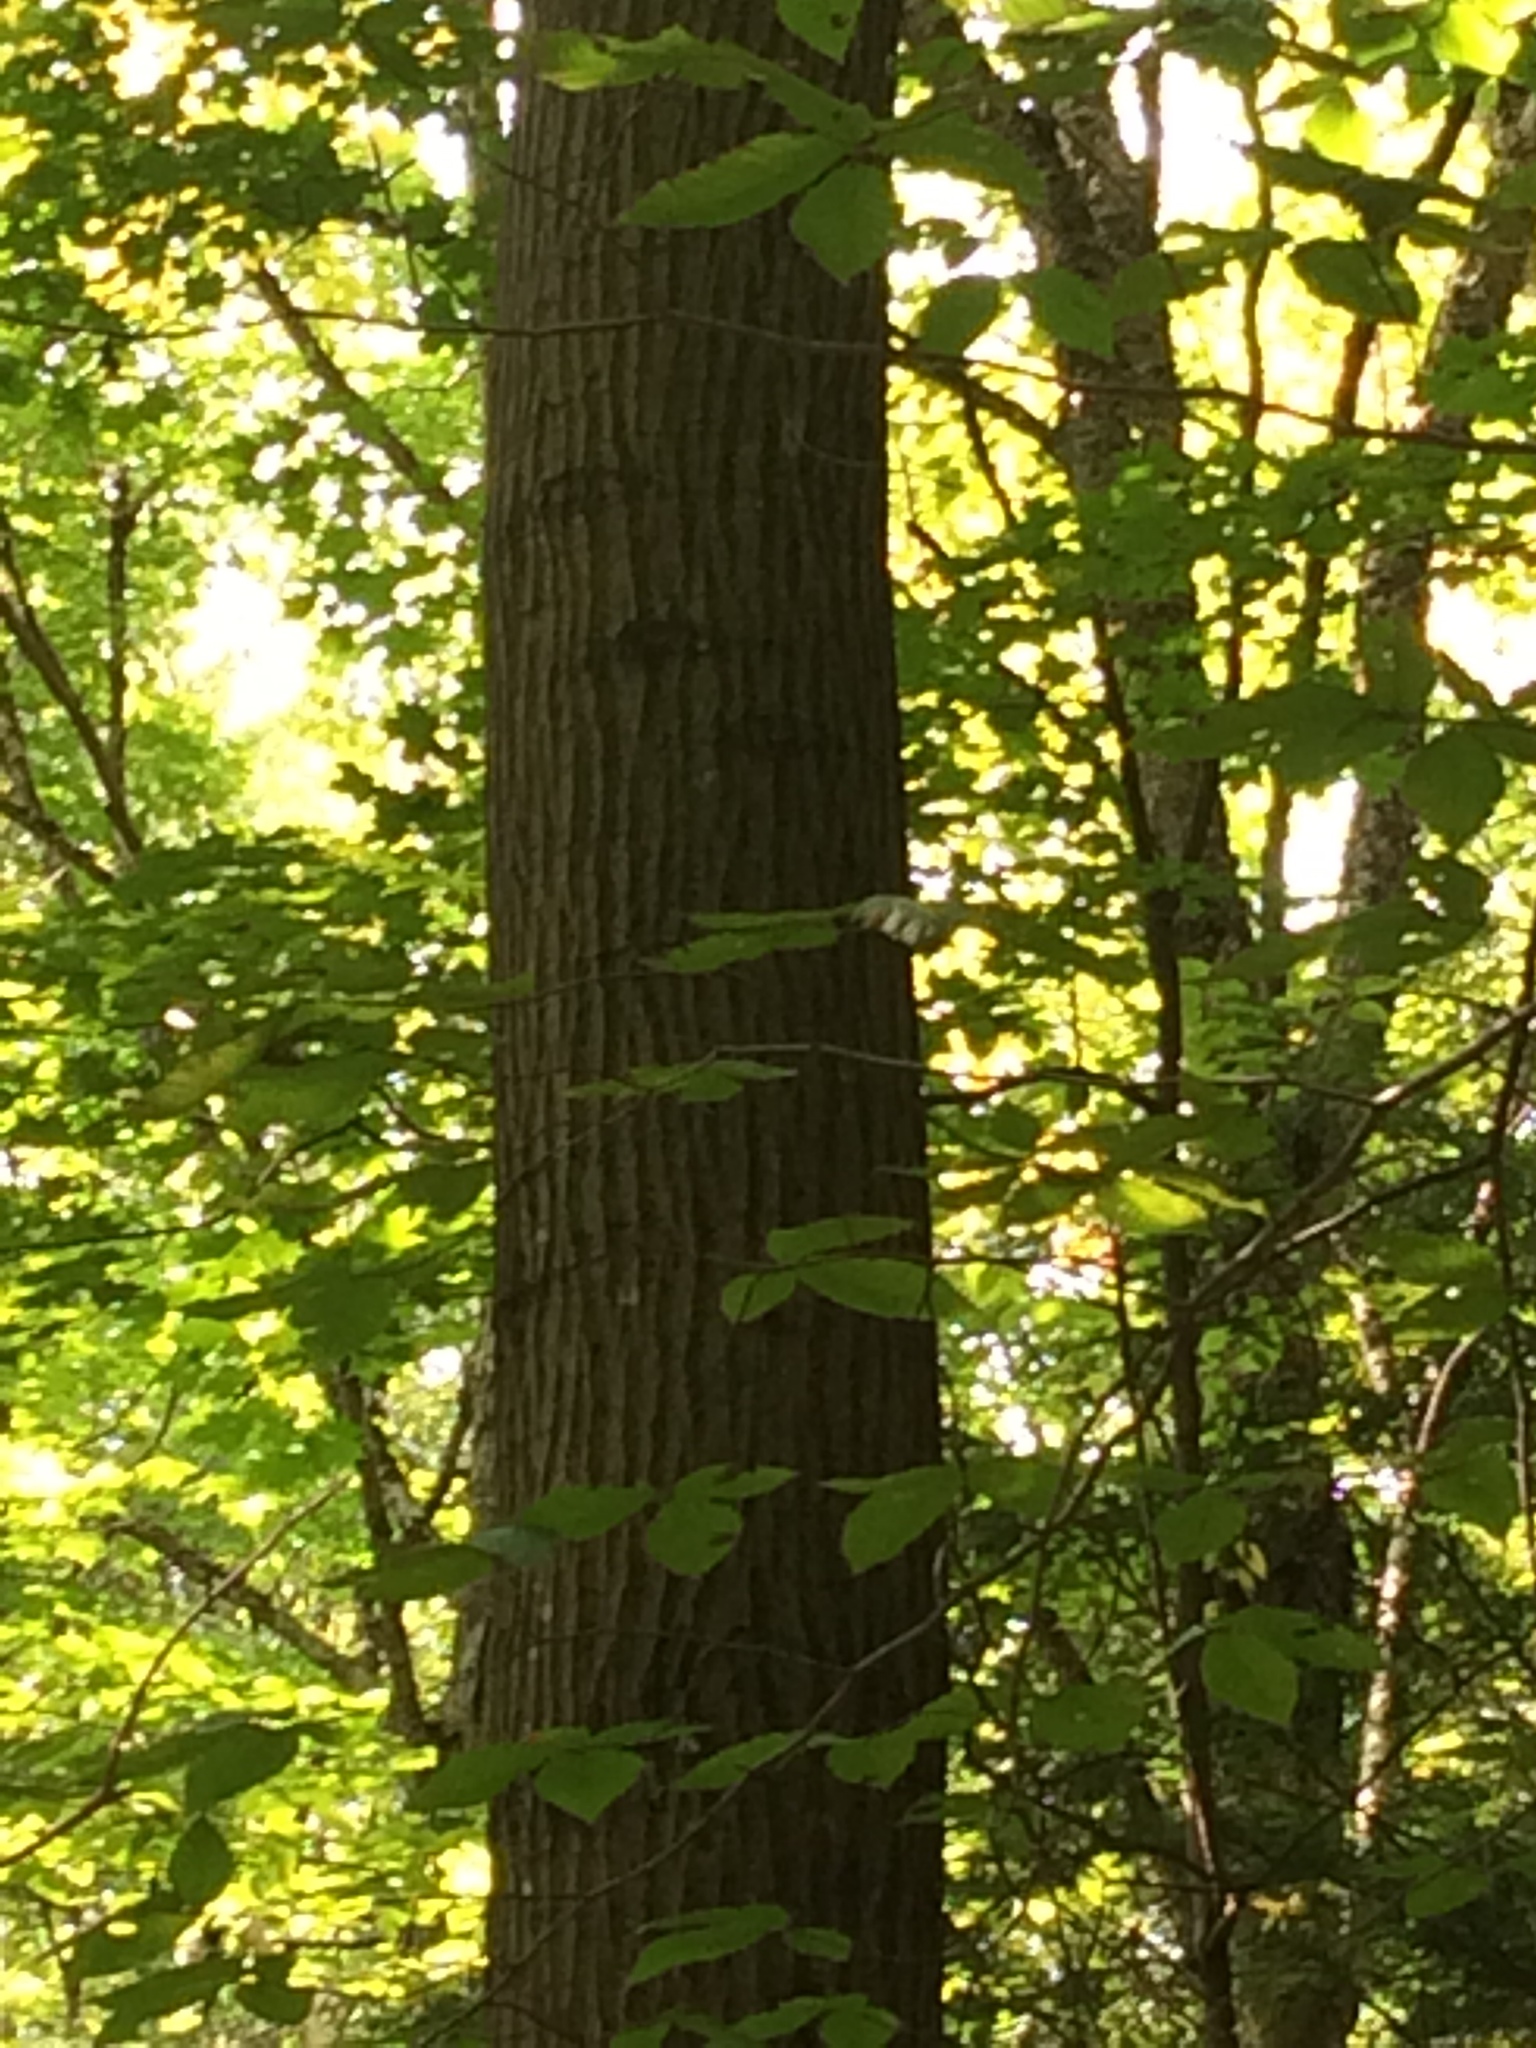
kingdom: Plantae
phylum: Tracheophyta
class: Magnoliopsida
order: Fagales
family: Fagaceae
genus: Quercus
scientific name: Quercus rubra
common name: Red oak
